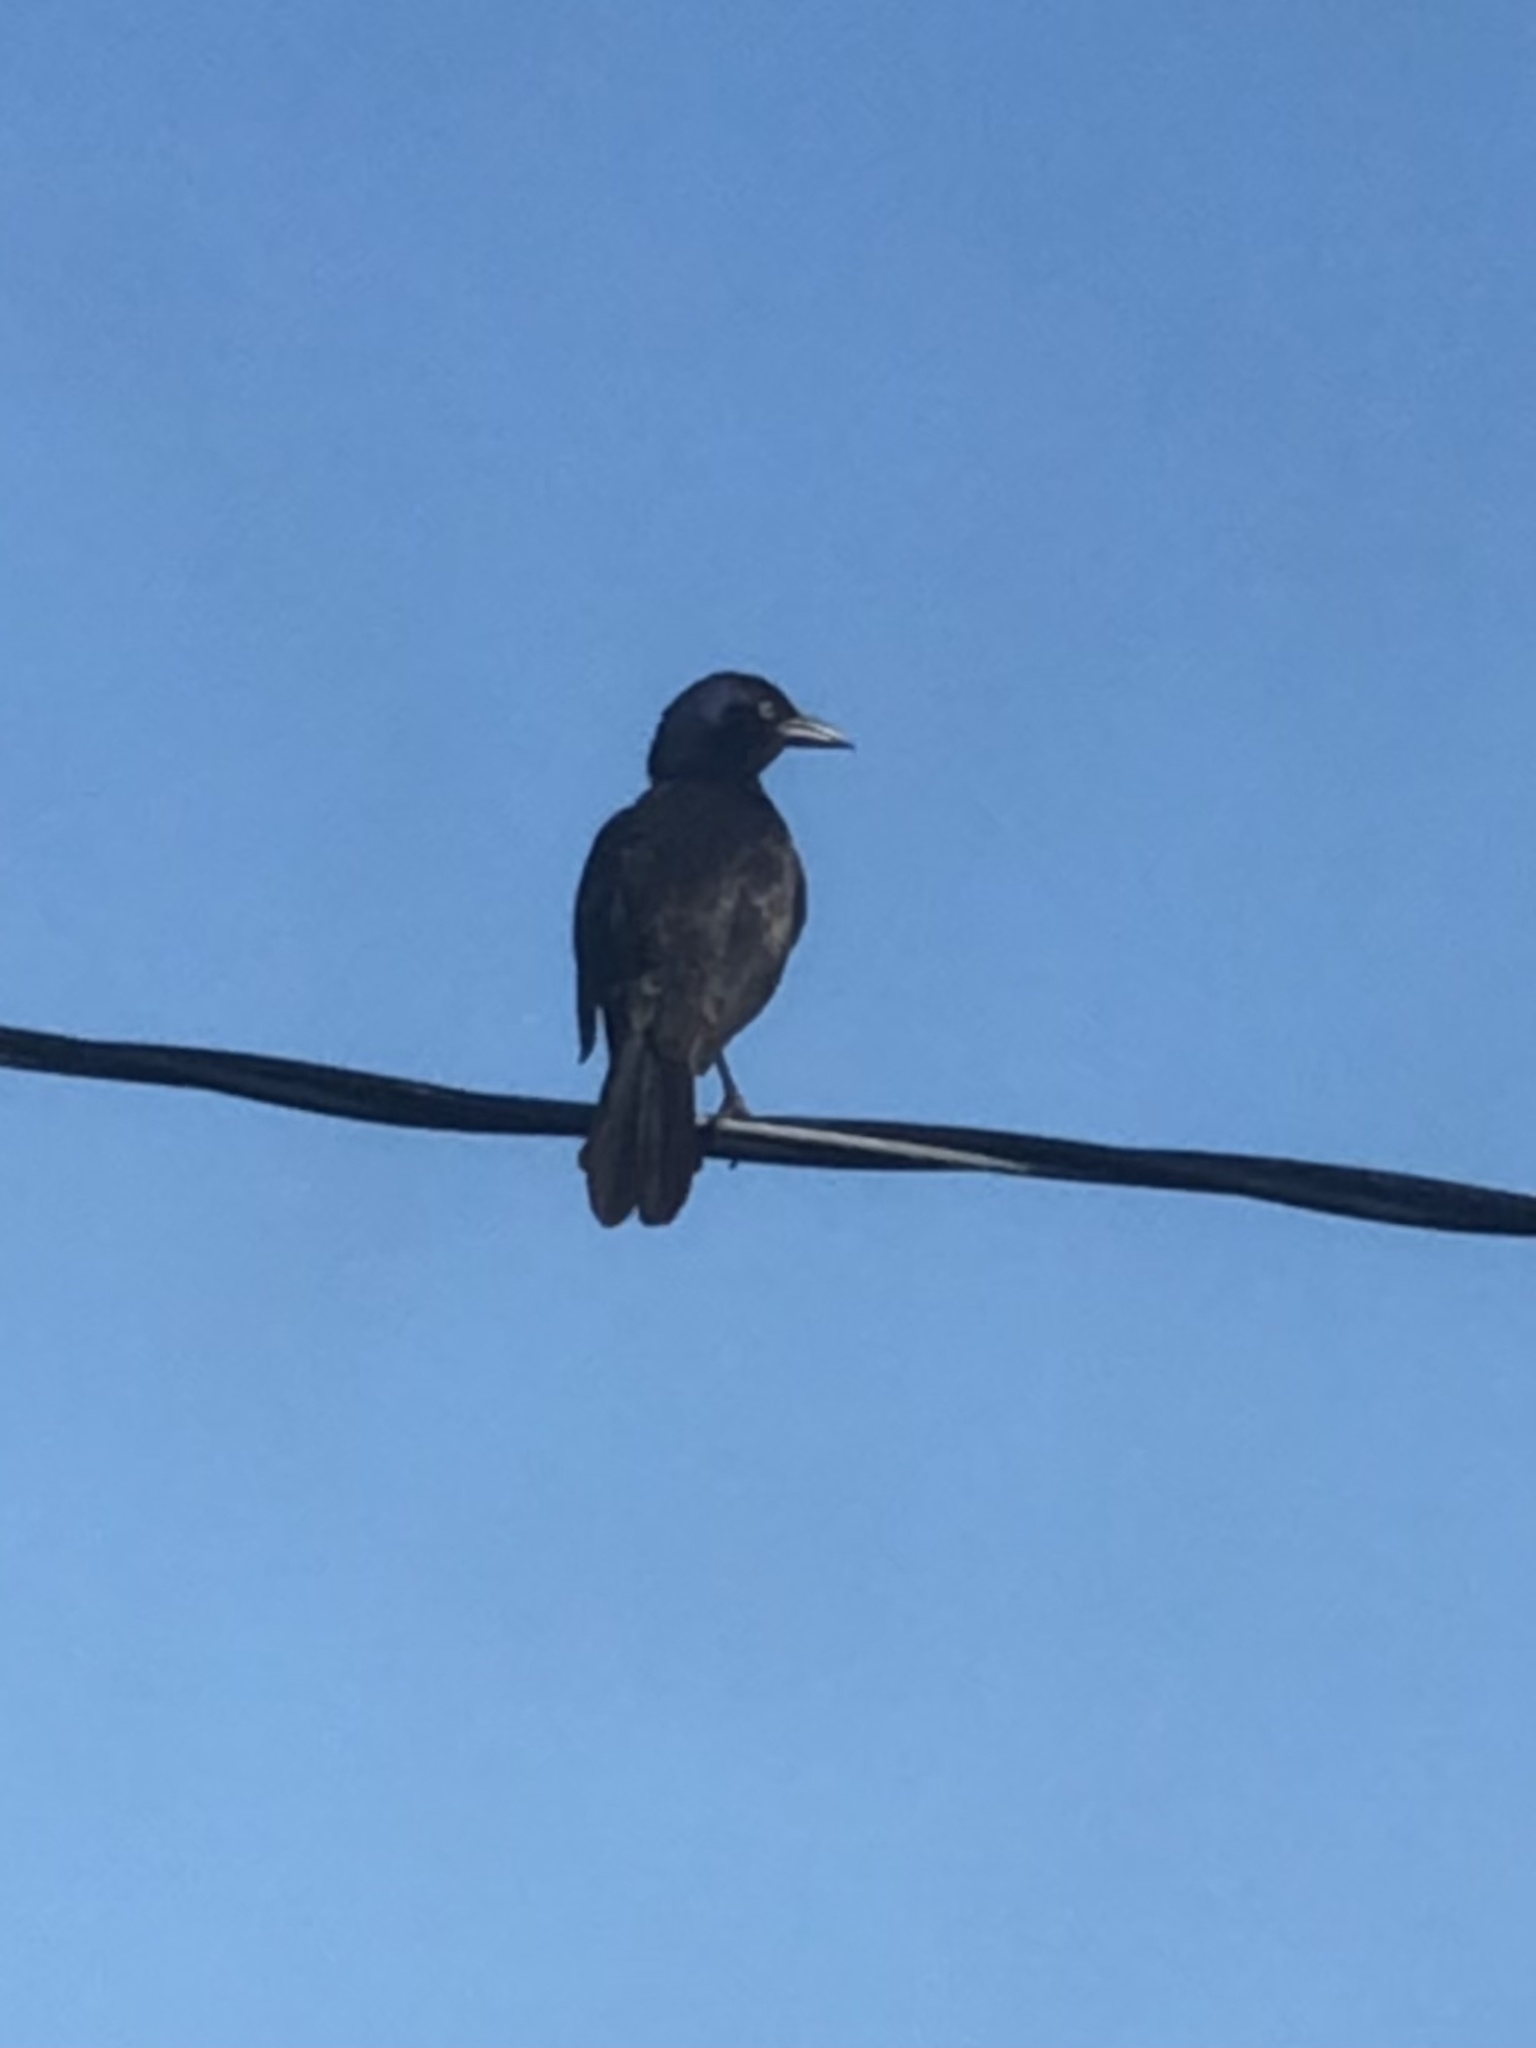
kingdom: Animalia
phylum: Chordata
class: Aves
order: Passeriformes
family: Icteridae
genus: Quiscalus
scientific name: Quiscalus quiscula
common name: Common grackle
